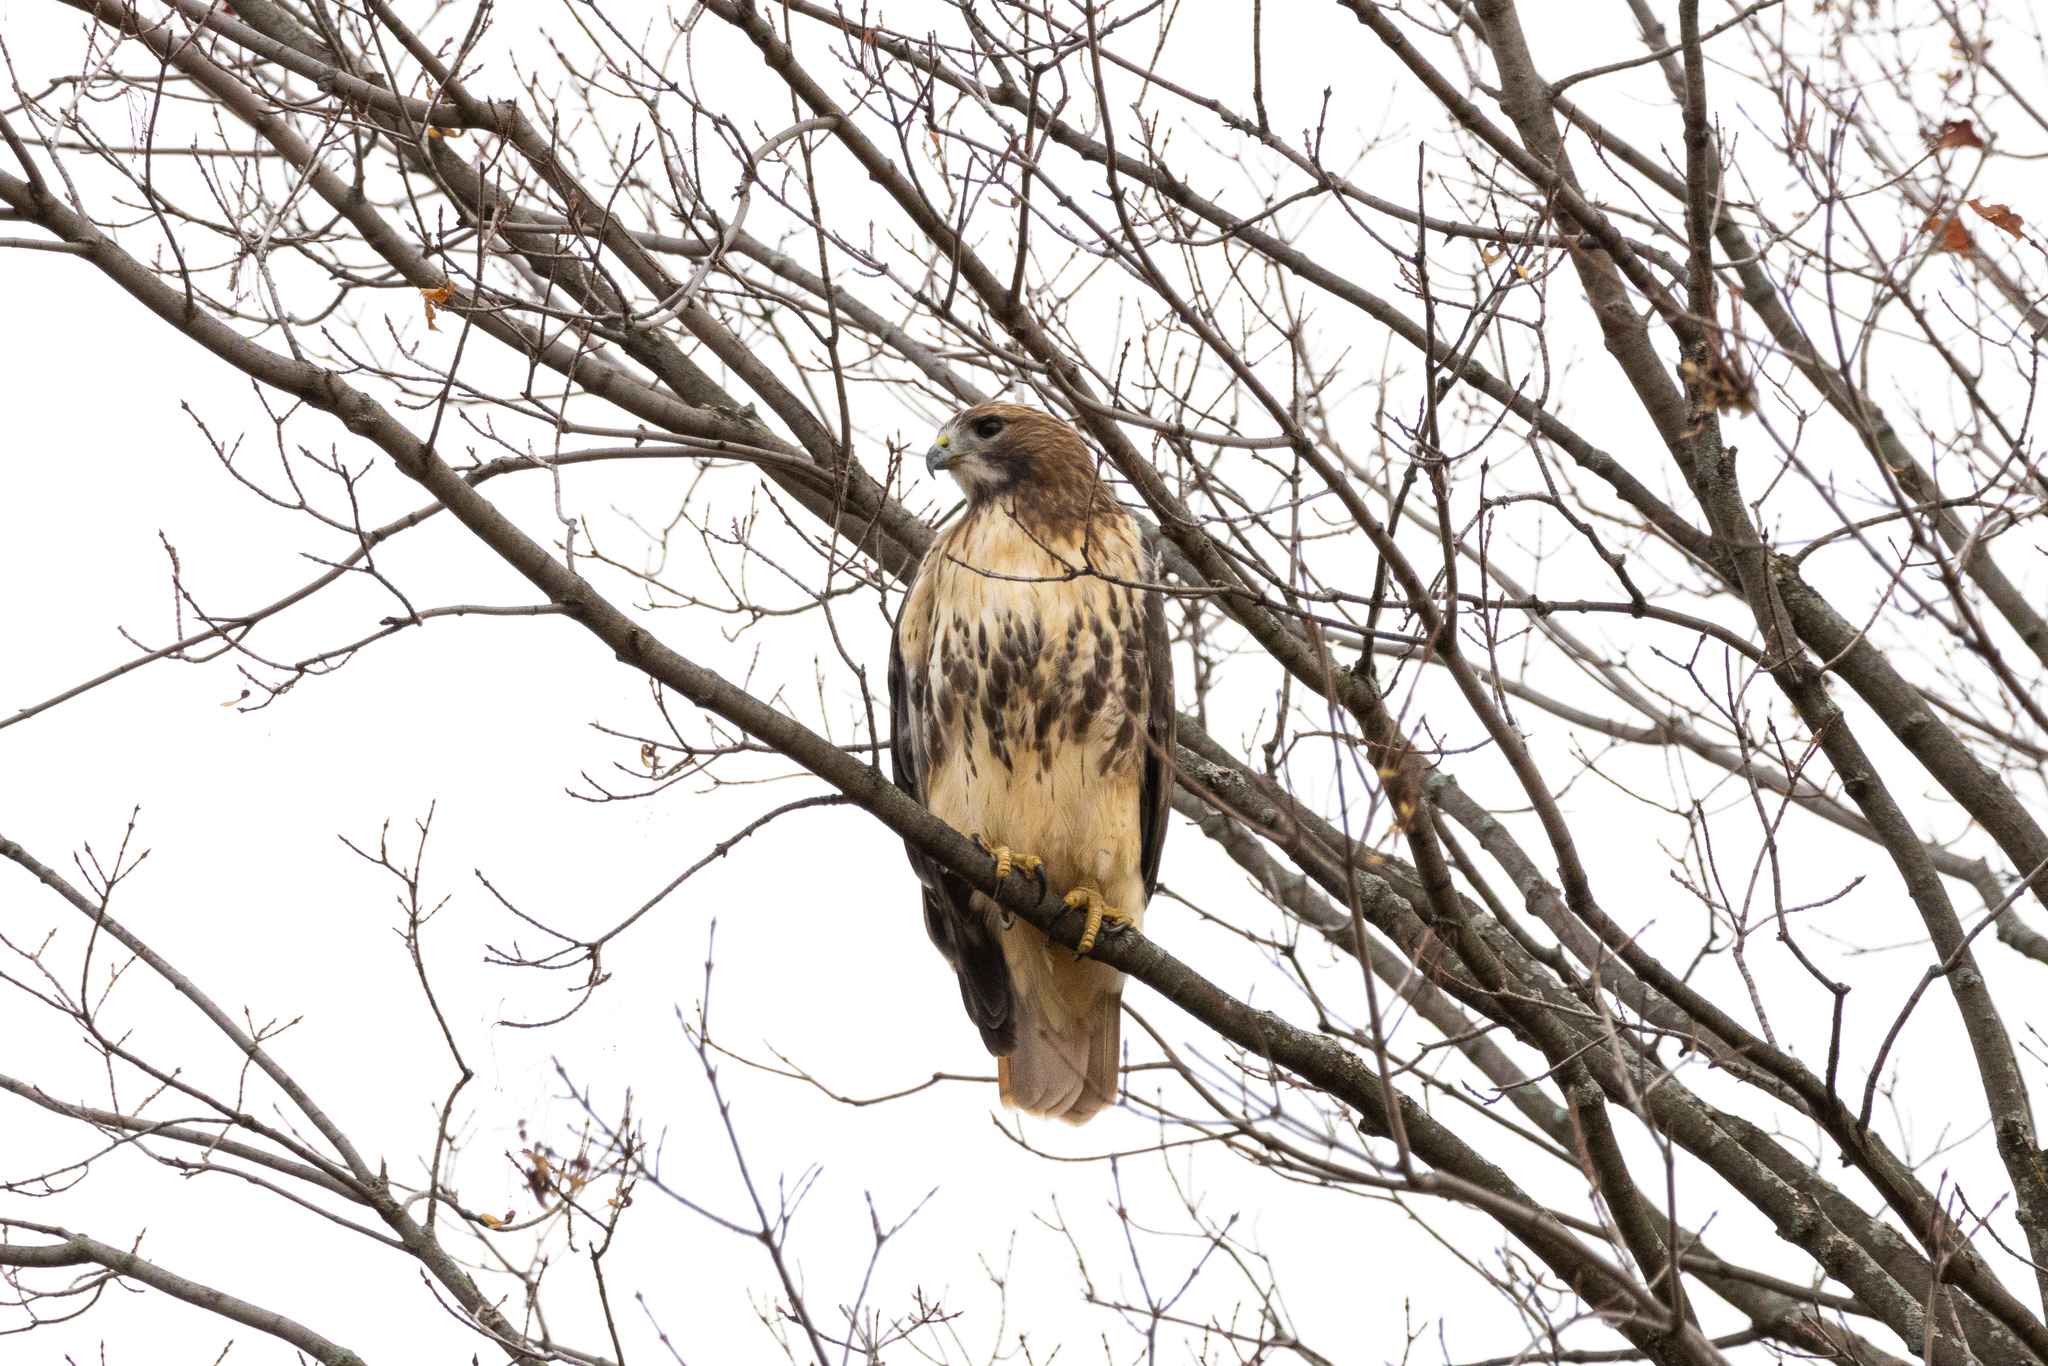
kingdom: Animalia
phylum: Chordata
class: Aves
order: Accipitriformes
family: Accipitridae
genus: Buteo
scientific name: Buteo jamaicensis
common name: Red-tailed hawk
